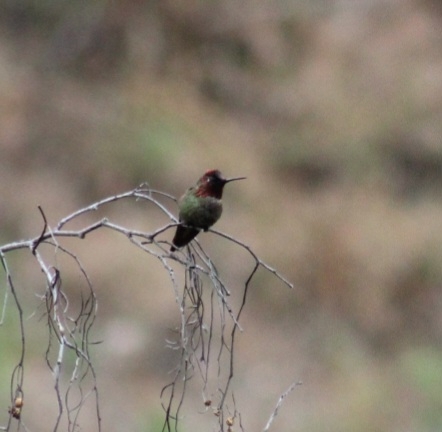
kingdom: Animalia
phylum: Chordata
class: Aves
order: Apodiformes
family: Trochilidae
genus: Calypte
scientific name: Calypte anna
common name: Anna's hummingbird
